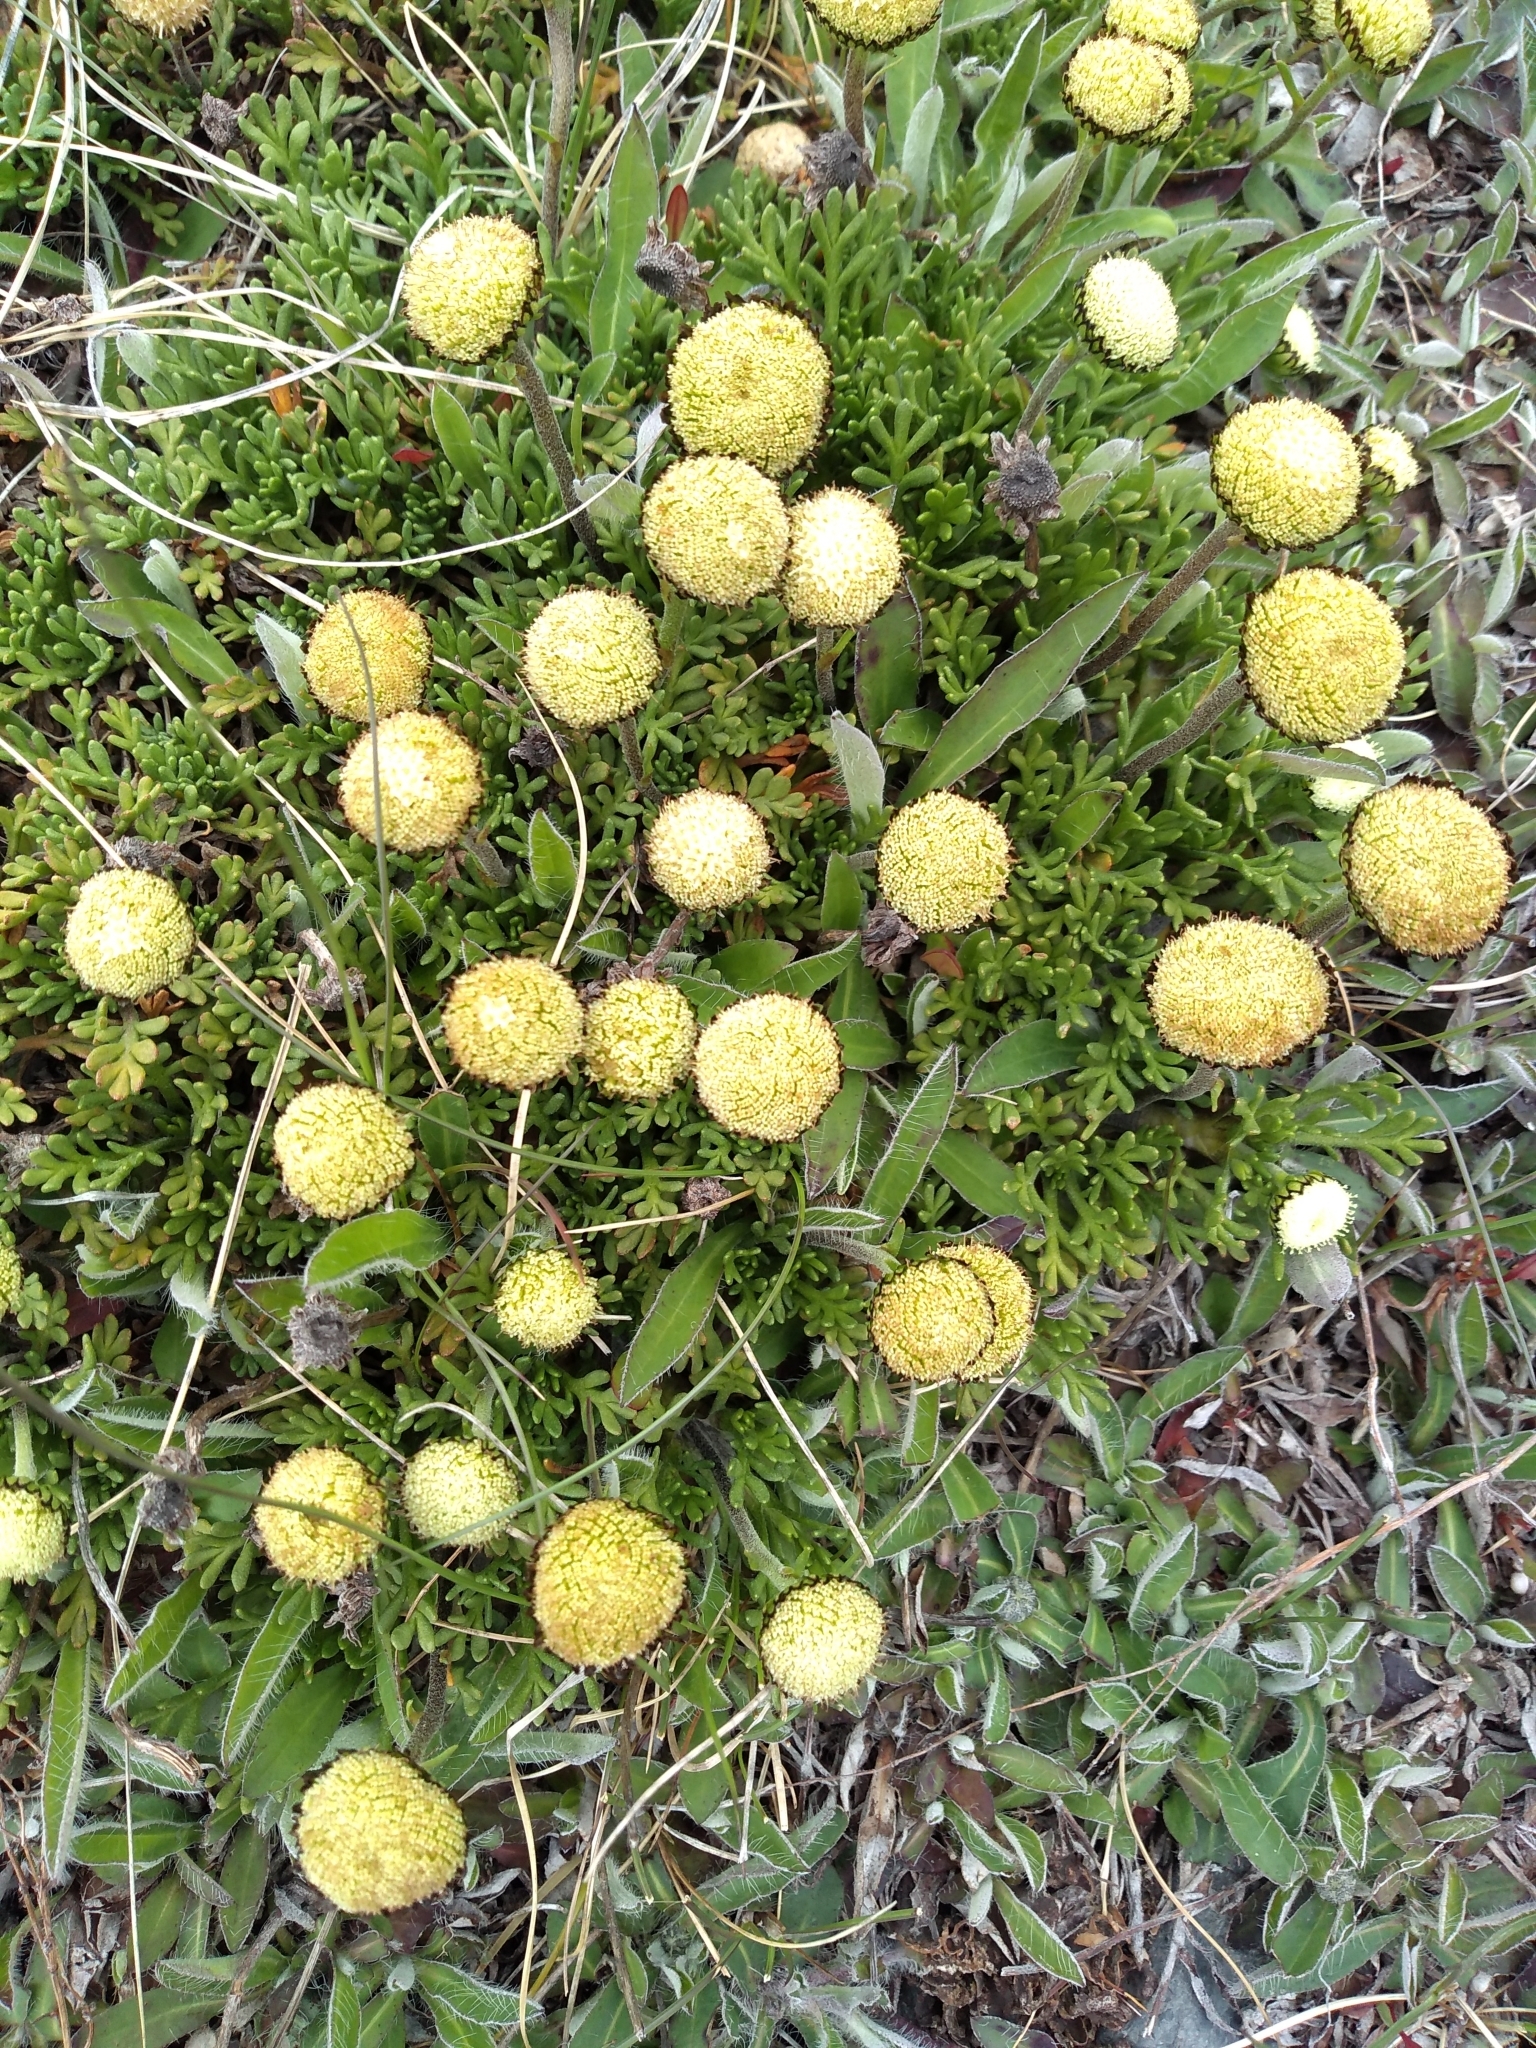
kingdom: Plantae
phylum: Tracheophyta
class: Magnoliopsida
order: Asterales
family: Asteraceae
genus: Leptinella
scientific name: Leptinella pyrethrifolia
